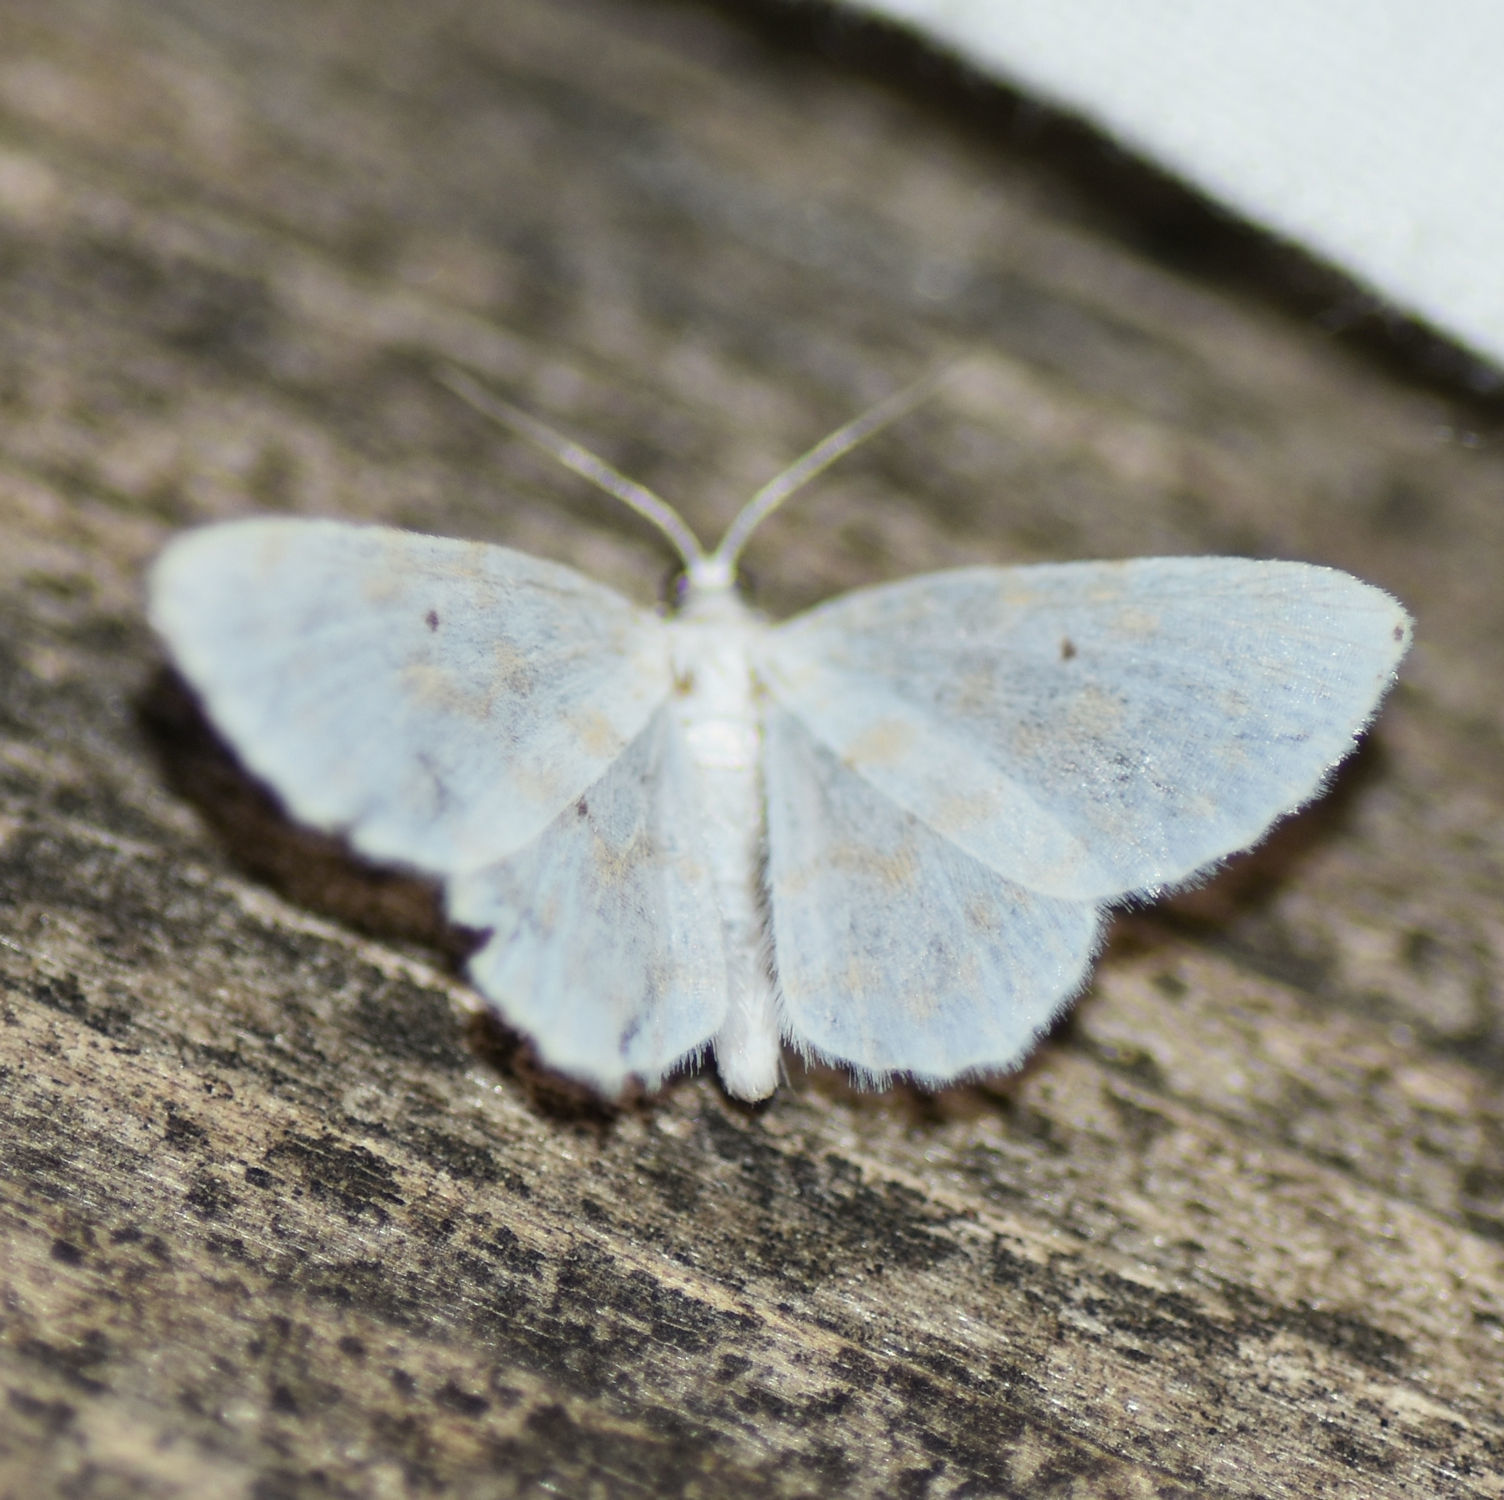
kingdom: Animalia
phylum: Arthropoda
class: Insecta
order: Lepidoptera
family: Geometridae
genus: Hydrelia
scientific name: Hydrelia albifera
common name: Fragile white carpet
